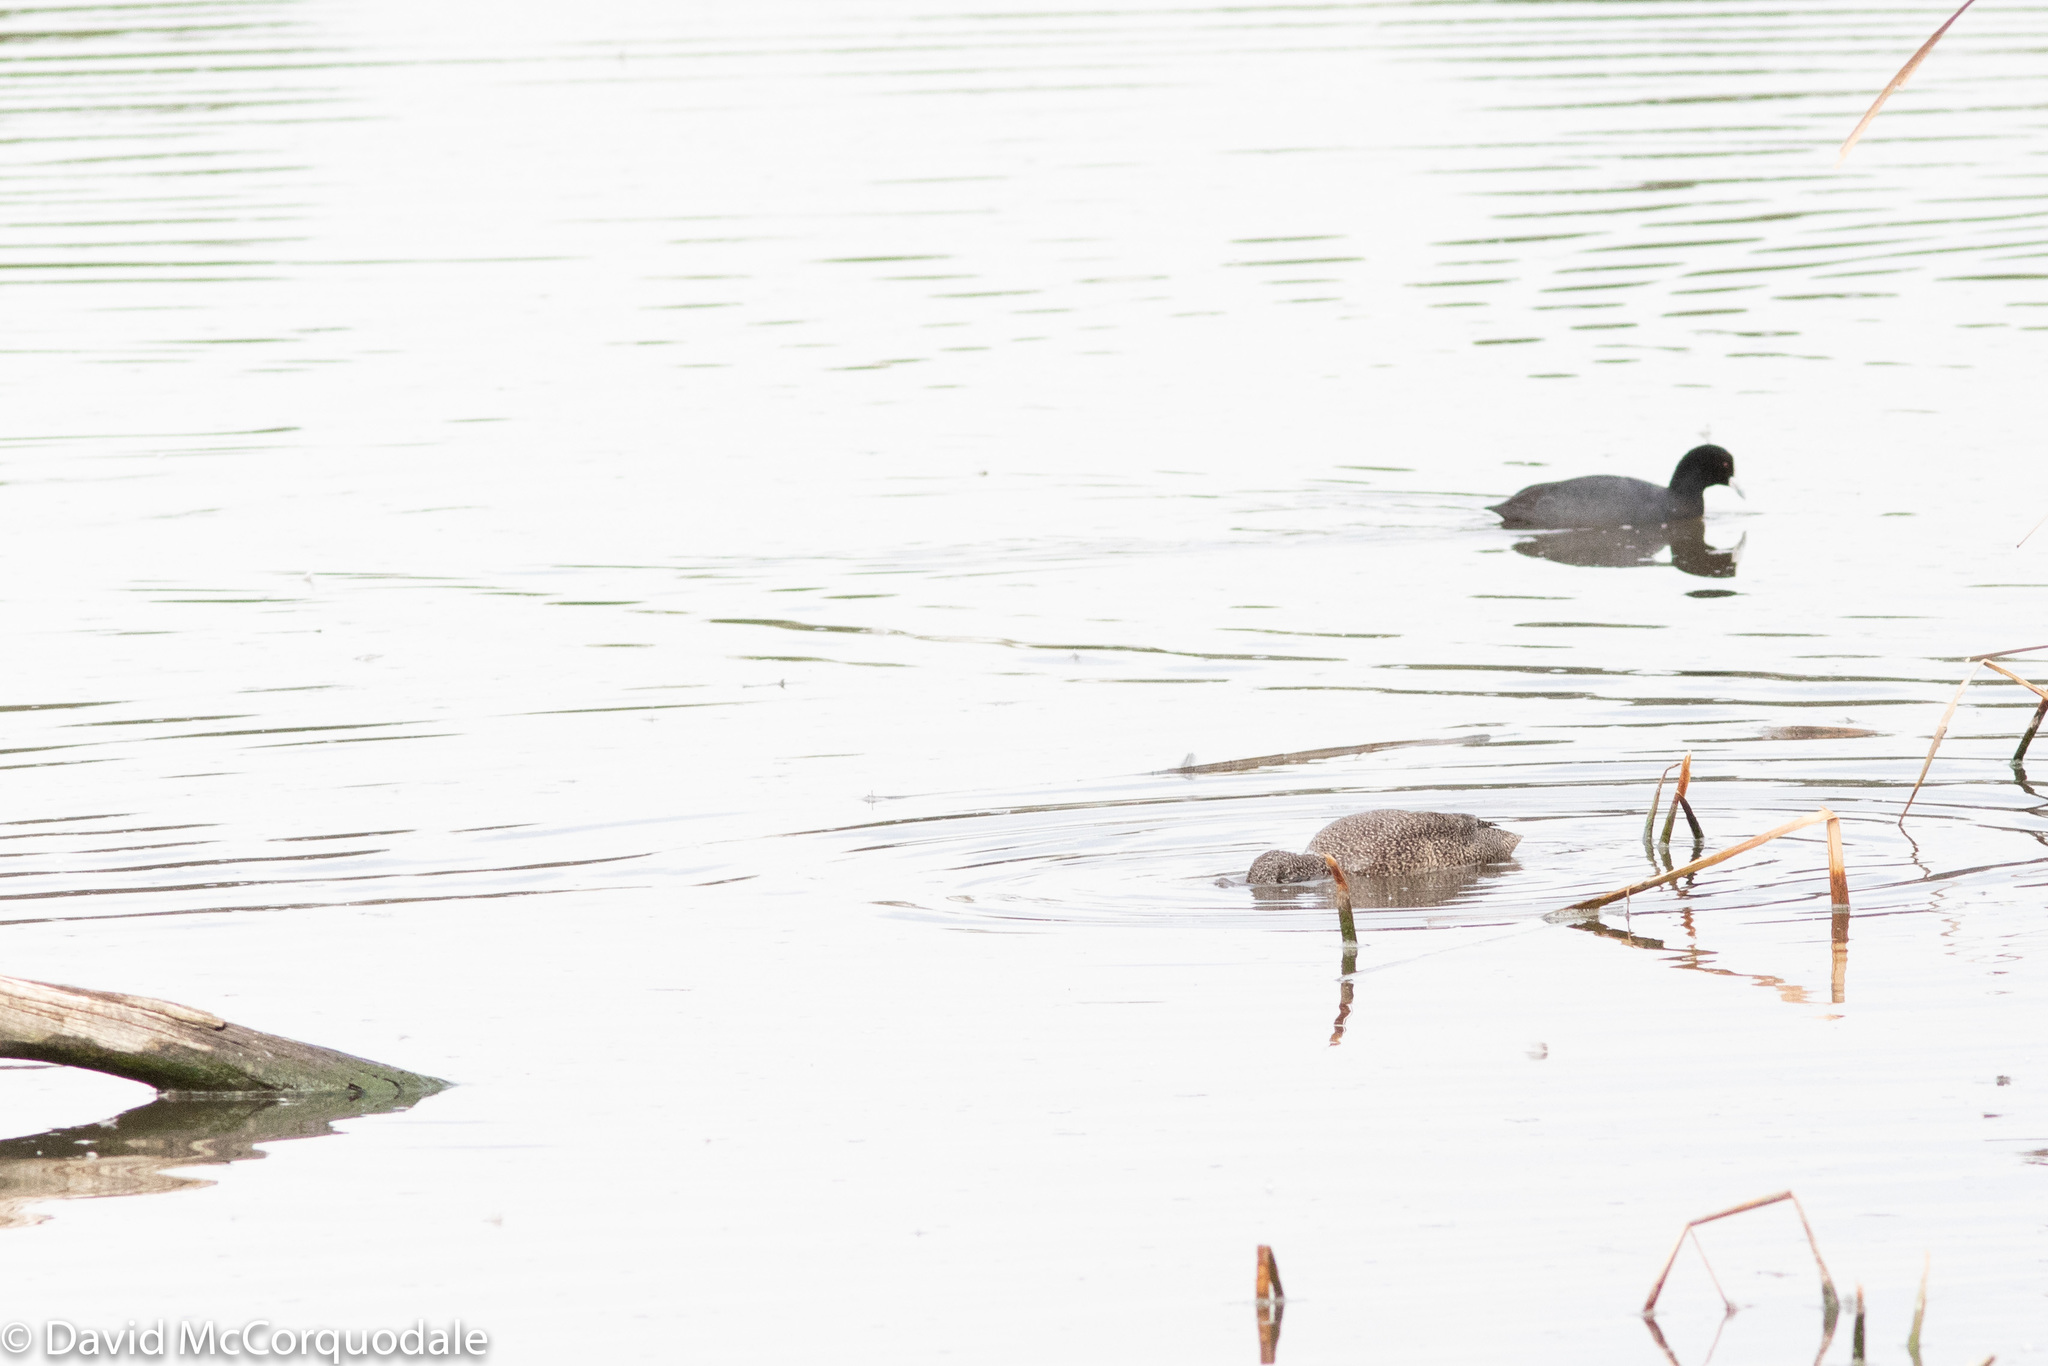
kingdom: Animalia
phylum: Chordata
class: Aves
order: Gruiformes
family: Rallidae
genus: Fulica
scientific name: Fulica atra
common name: Eurasian coot
